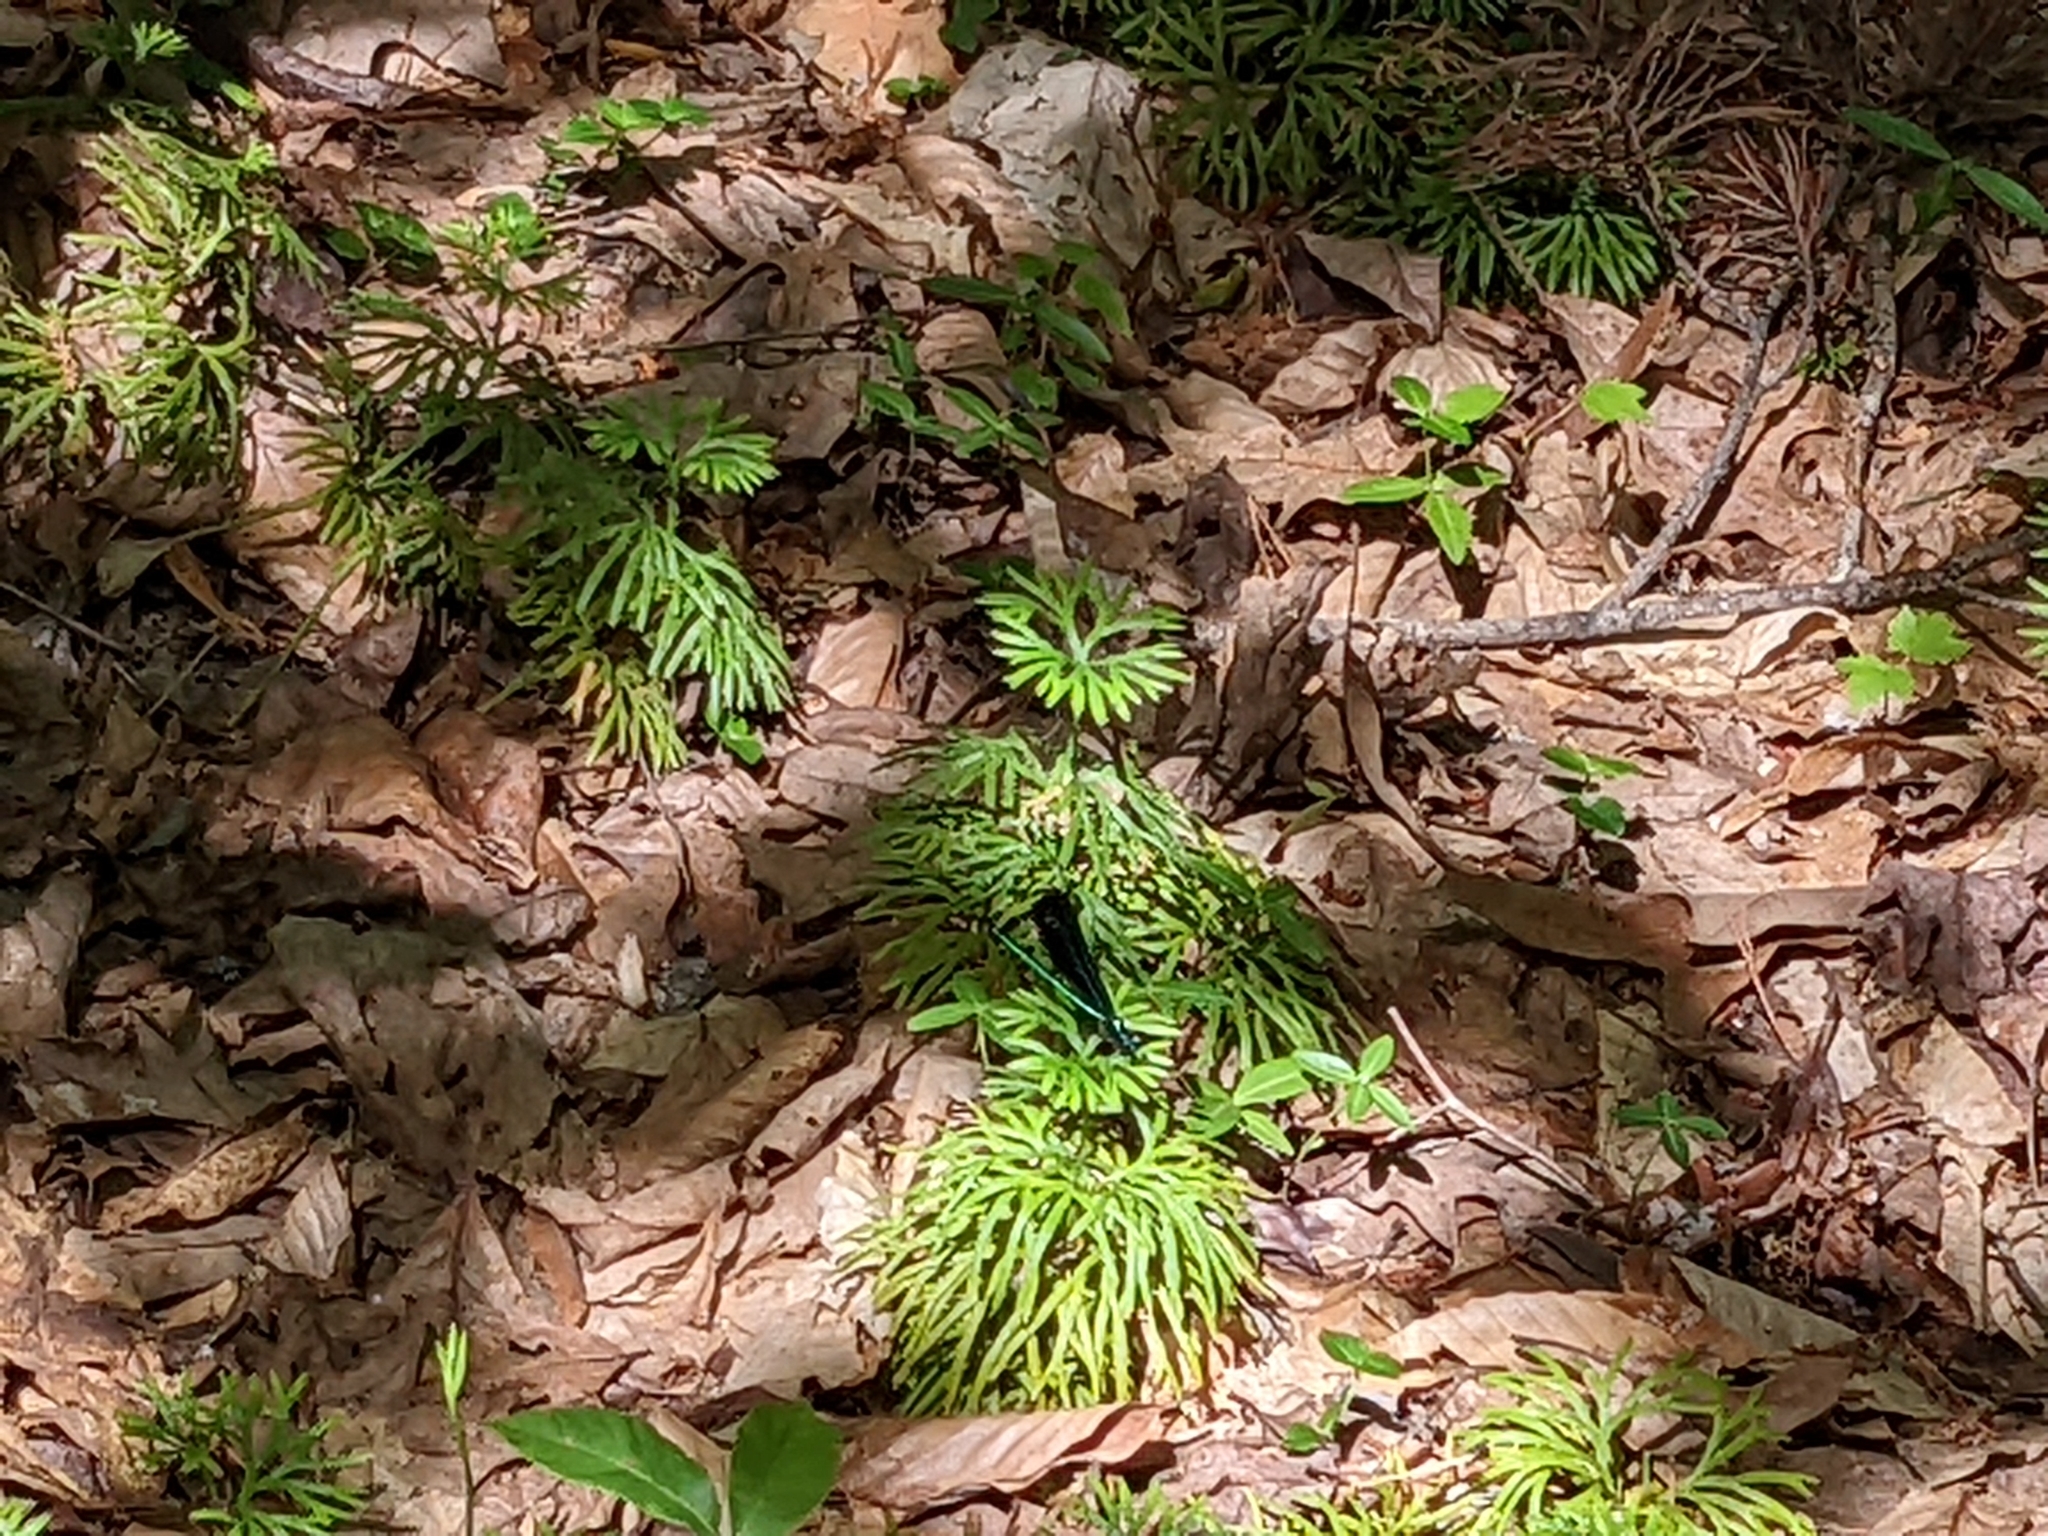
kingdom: Animalia
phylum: Arthropoda
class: Insecta
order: Odonata
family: Calopterygidae
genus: Calopteryx
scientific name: Calopteryx maculata
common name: Ebony jewelwing
